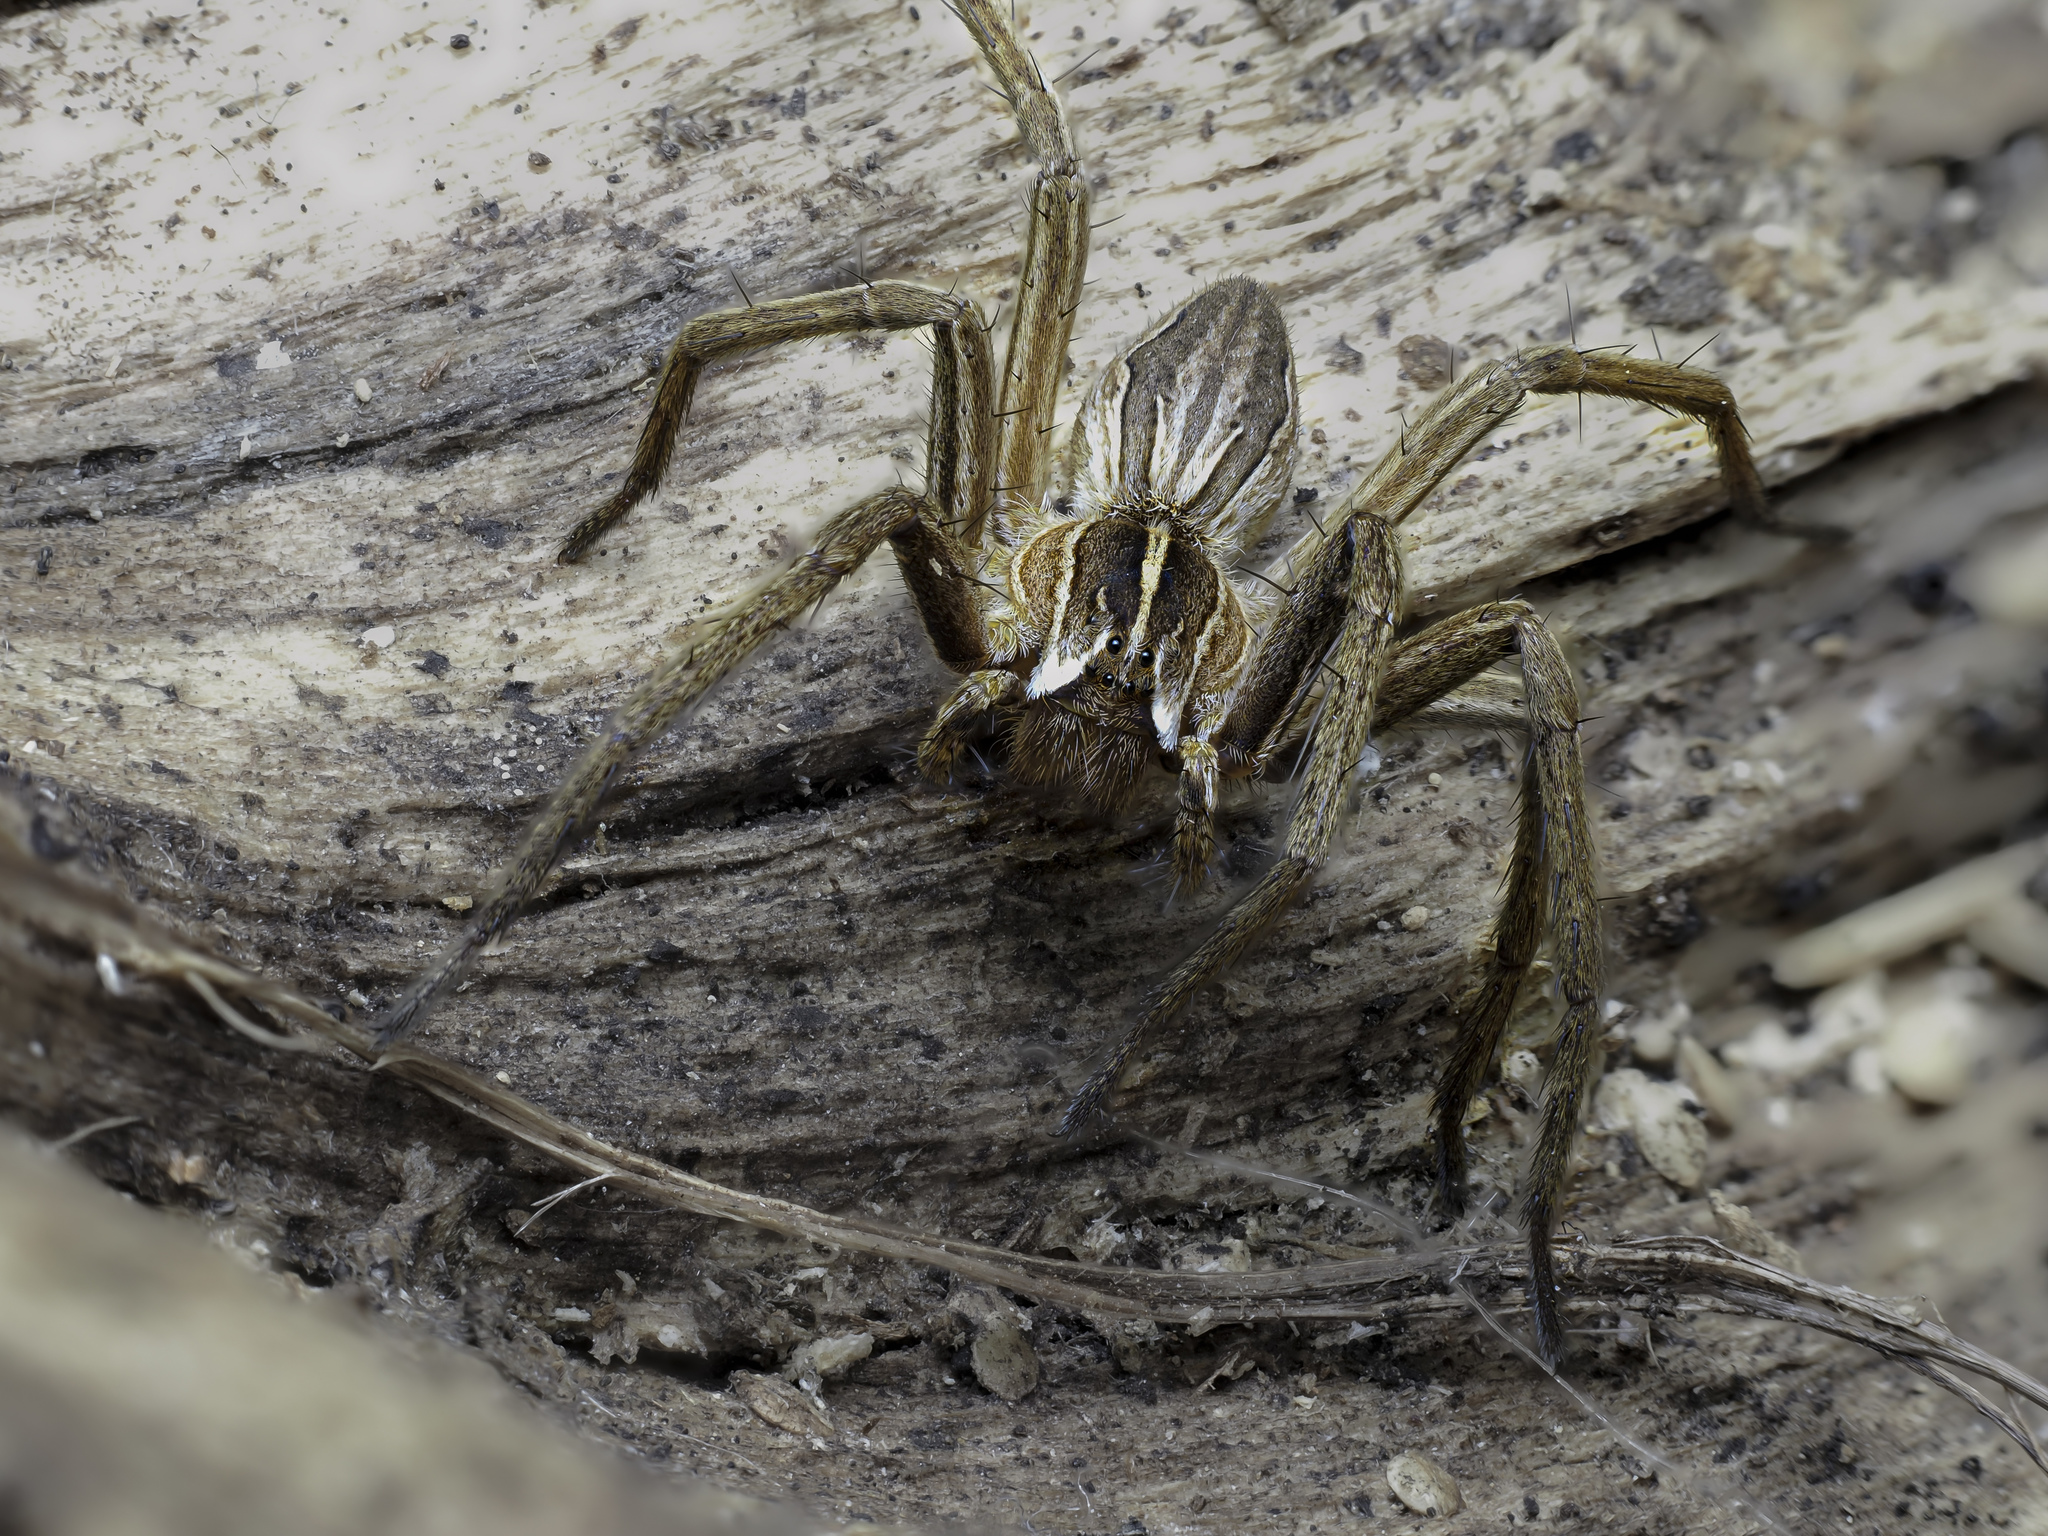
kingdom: Animalia
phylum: Arthropoda
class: Arachnida
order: Araneae
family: Pisauridae
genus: Pisaura
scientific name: Pisaura mirabilis
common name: Tent spider
